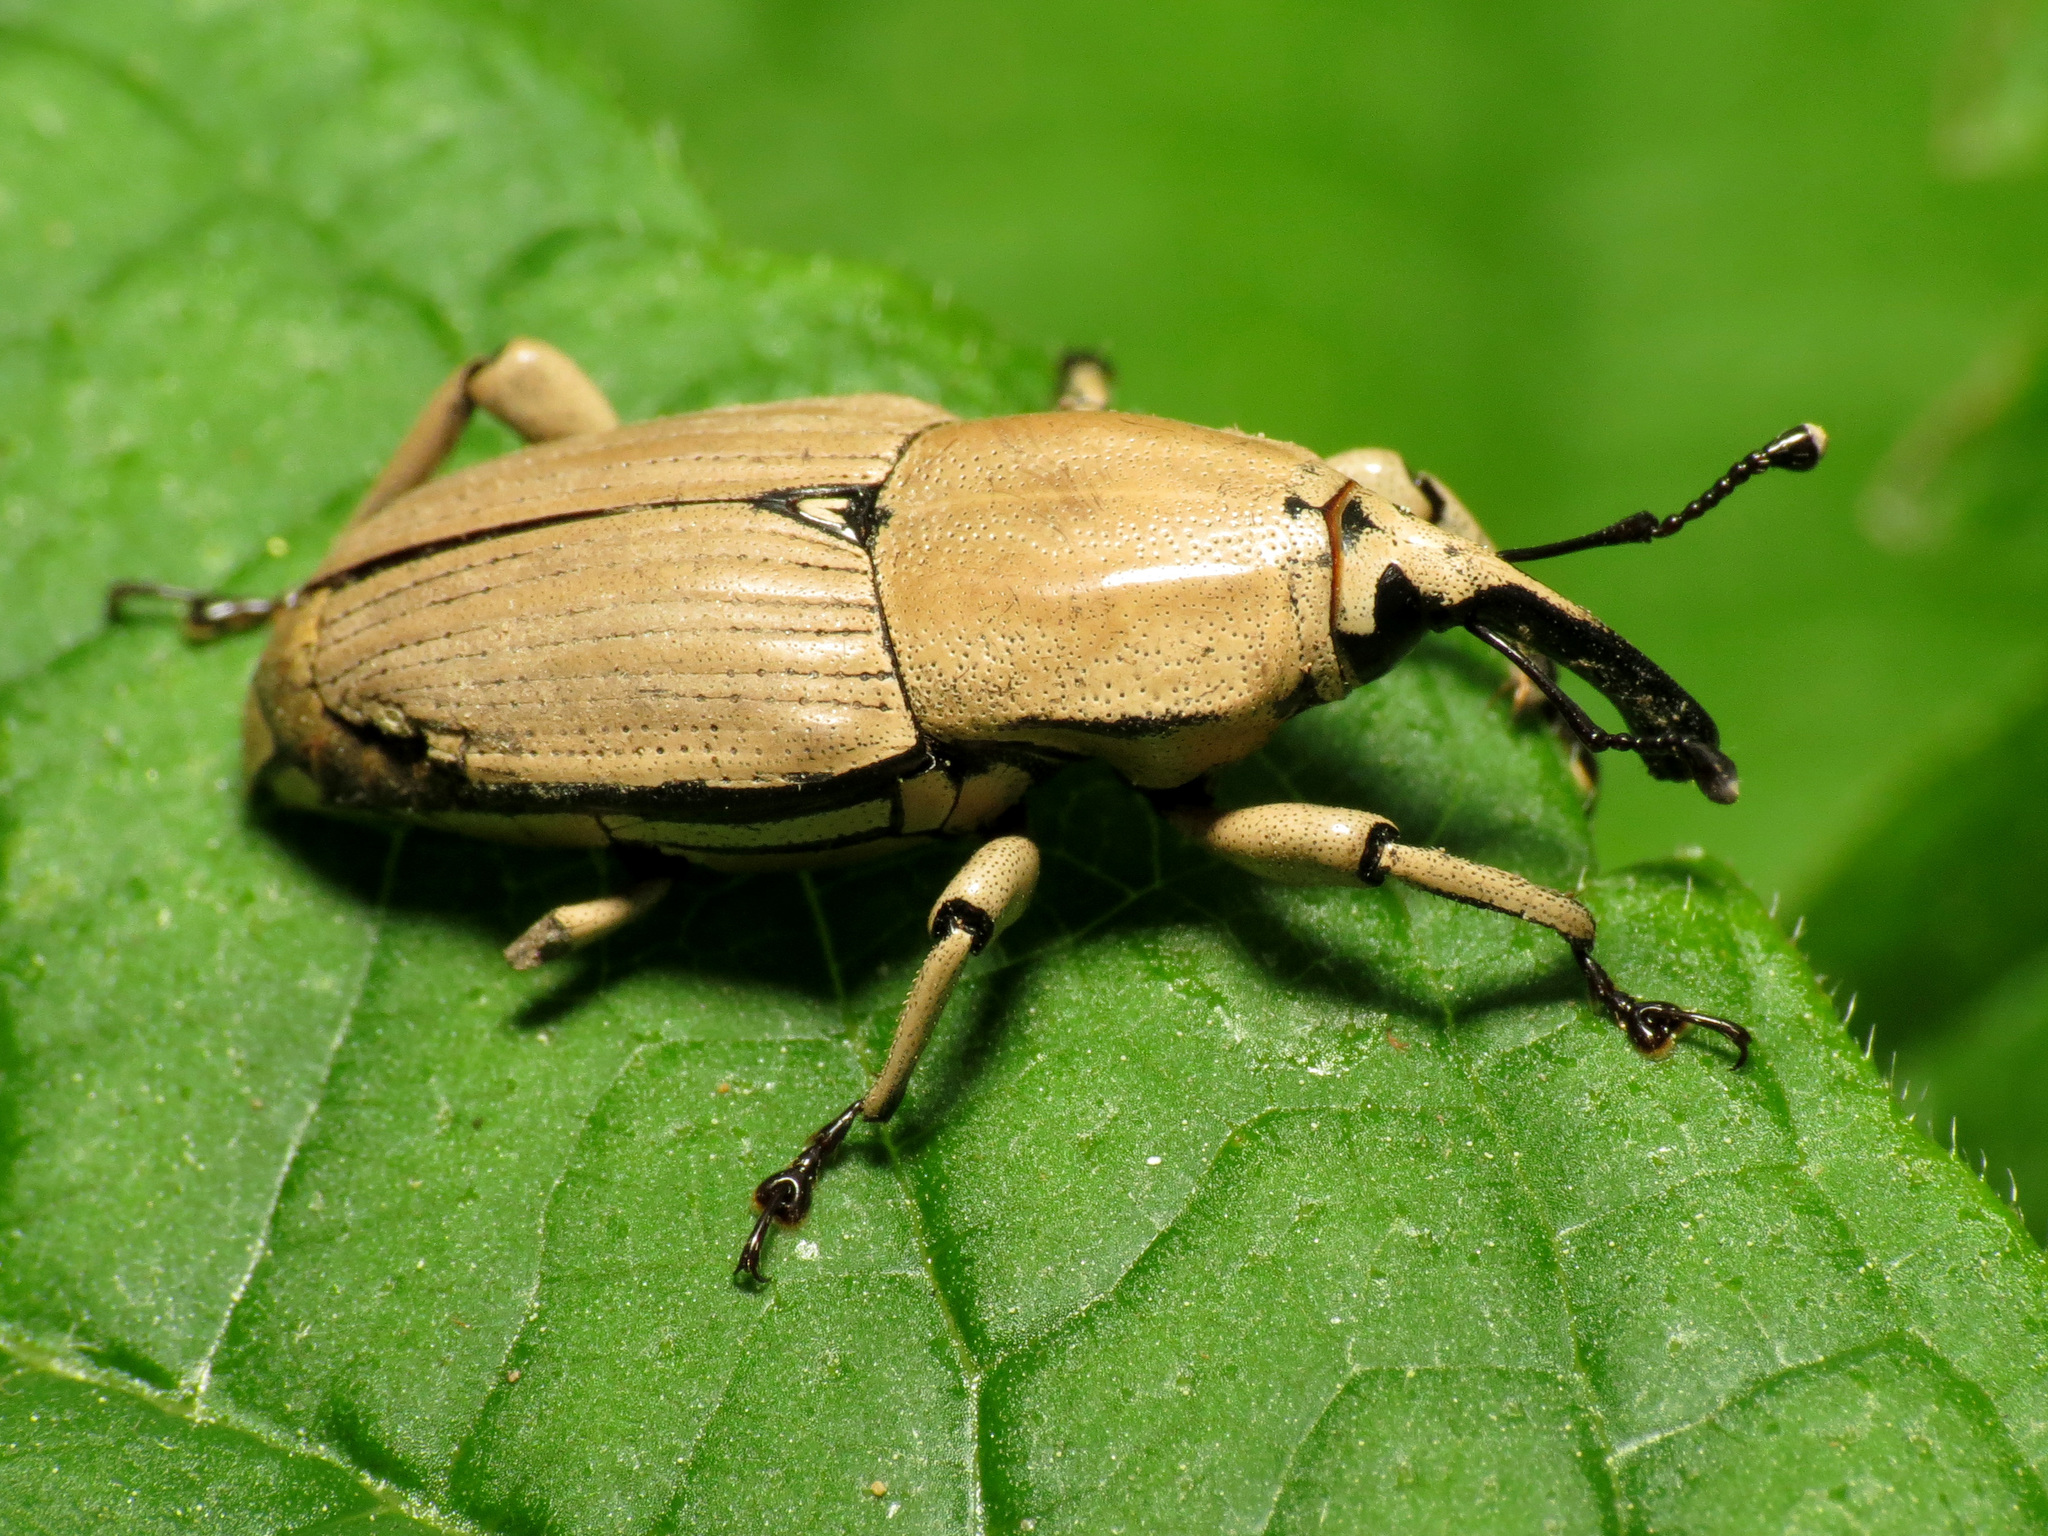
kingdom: Animalia
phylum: Arthropoda
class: Insecta
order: Coleoptera
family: Dryophthoridae
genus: Sphenophorus
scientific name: Sphenophorus aequalis
